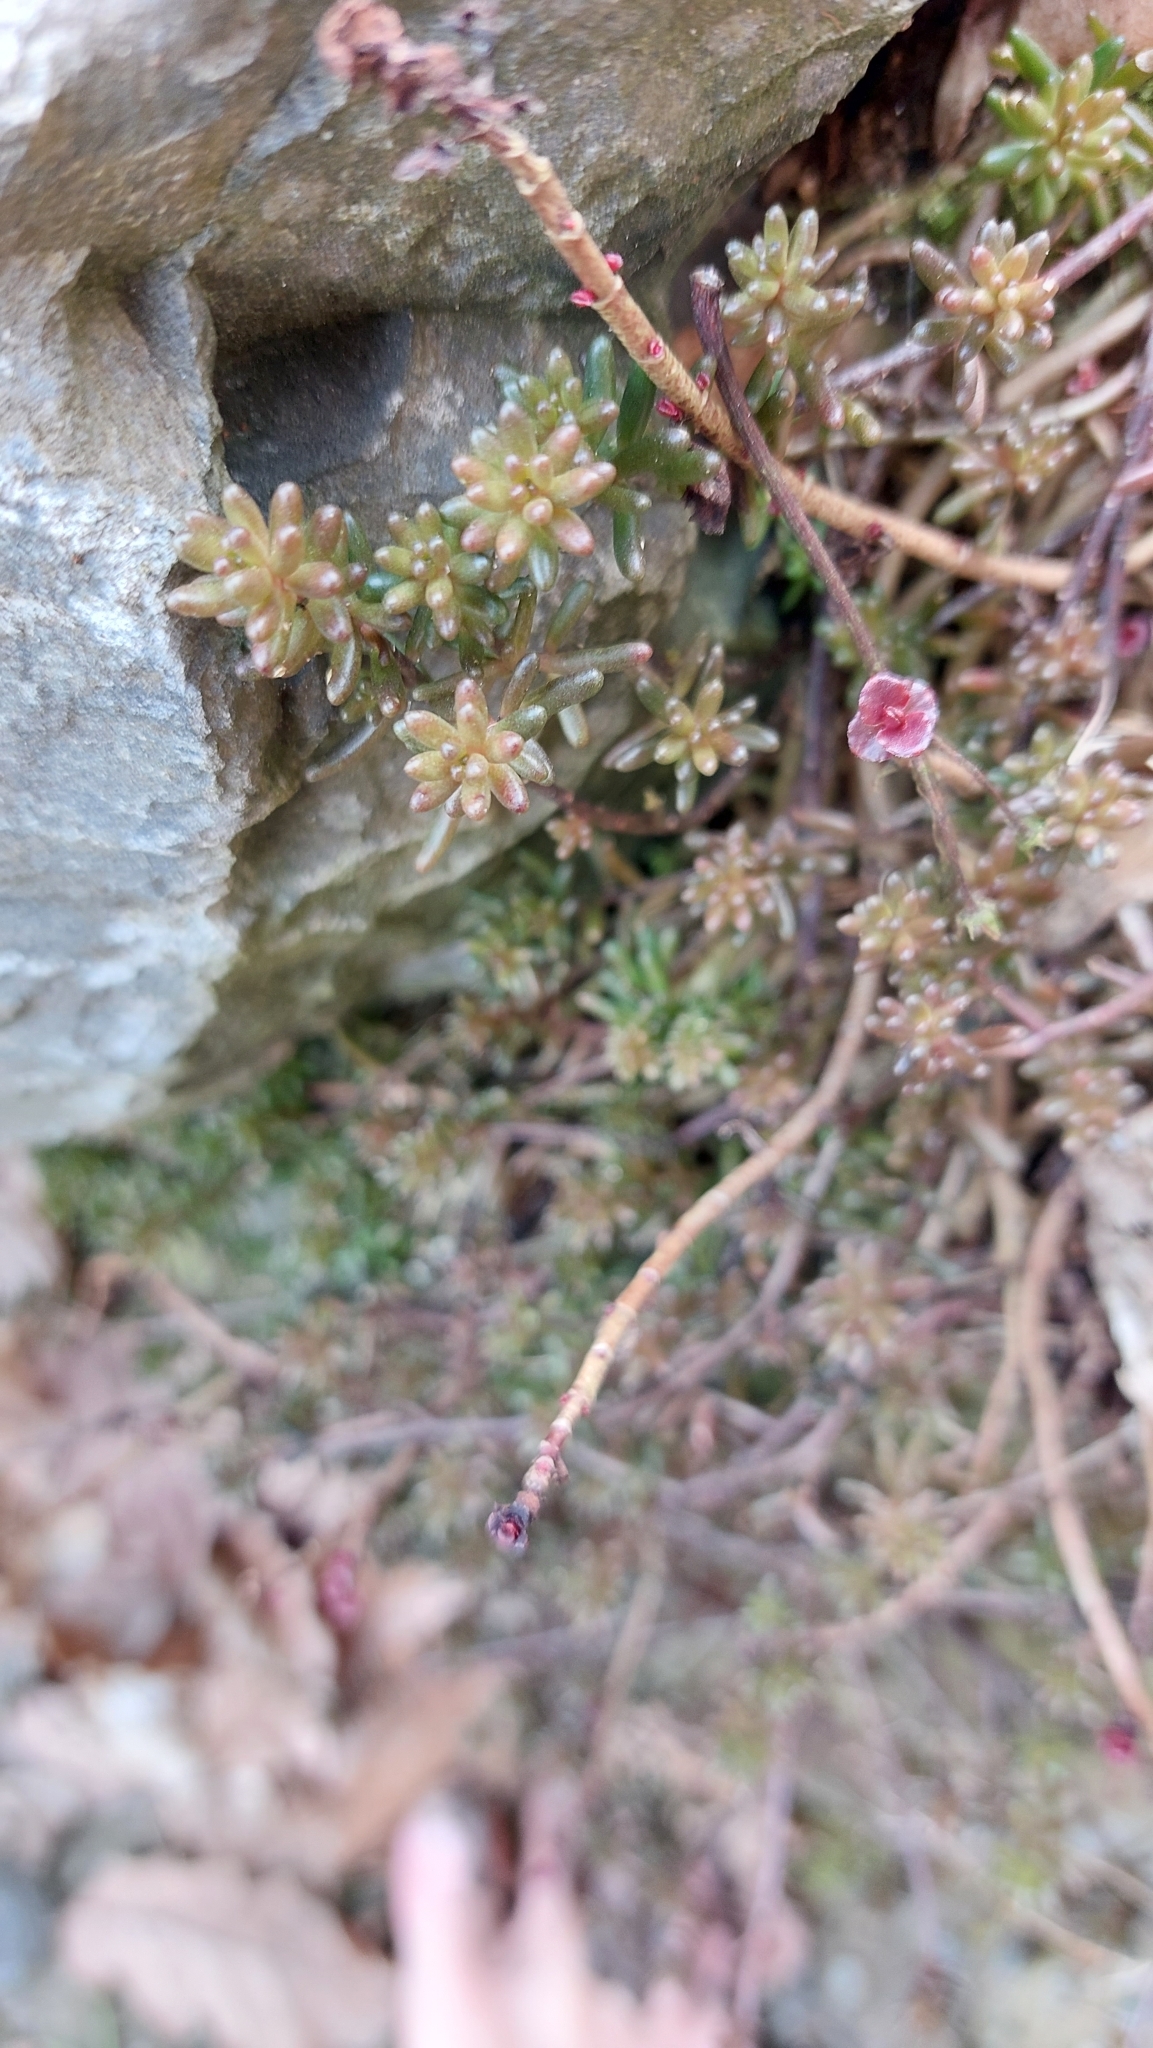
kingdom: Plantae
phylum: Tracheophyta
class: Magnoliopsida
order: Saxifragales
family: Crassulaceae
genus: Sedum
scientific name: Sedum sexangulare
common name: Tasteless stonecrop
